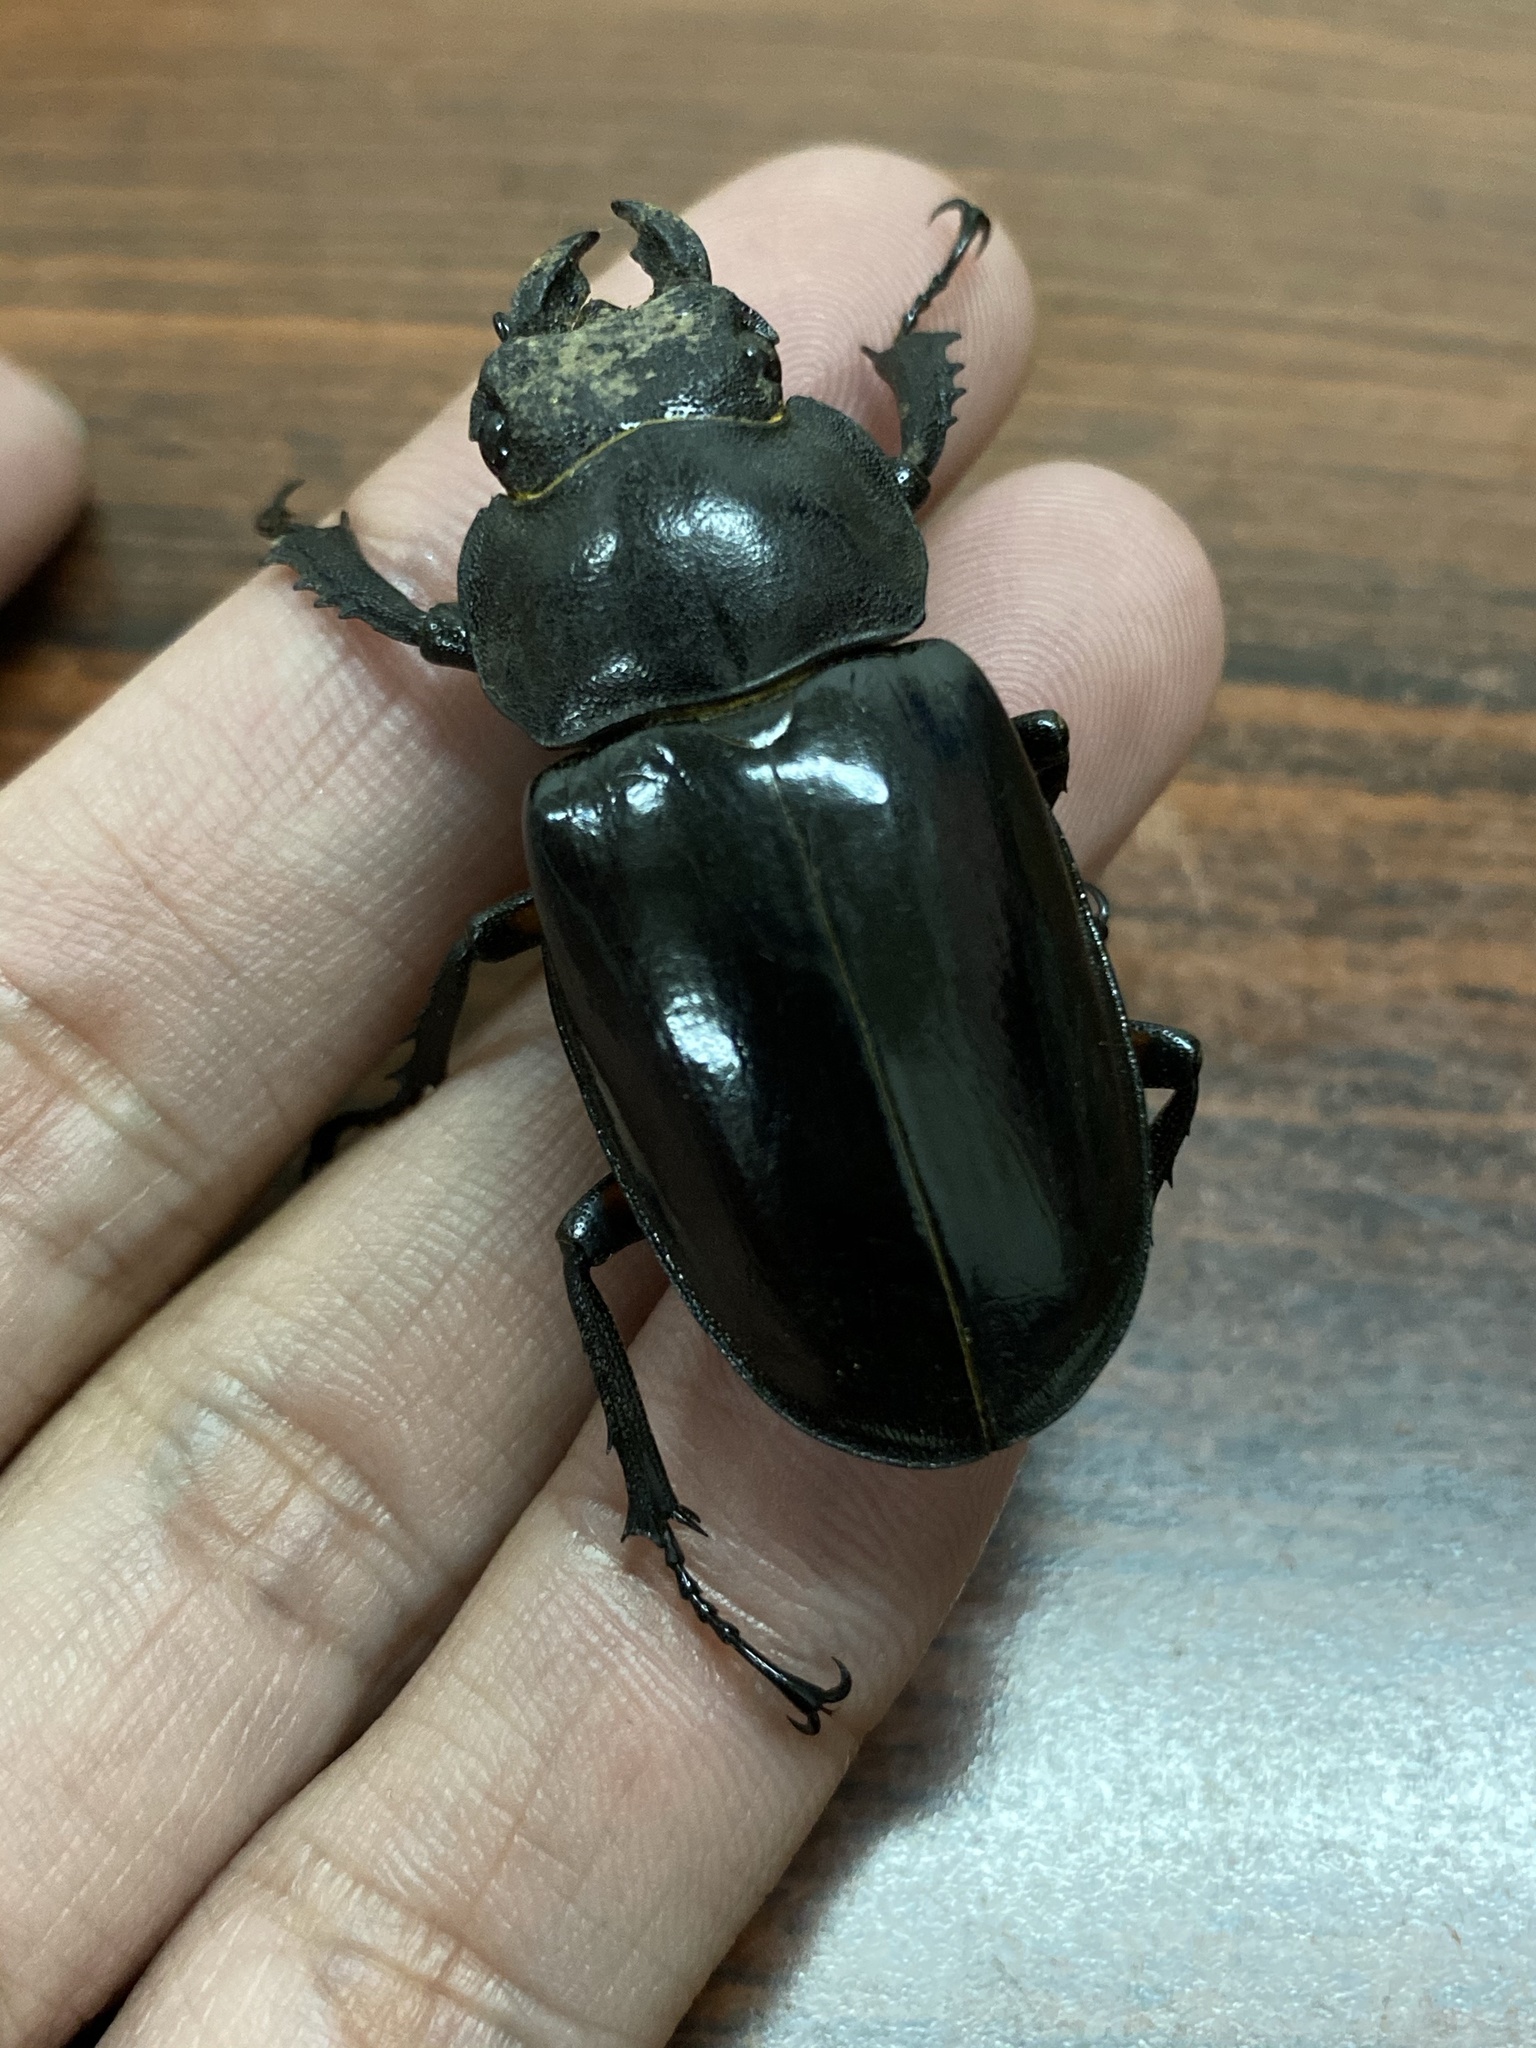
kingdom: Animalia
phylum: Arthropoda
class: Insecta
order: Coleoptera
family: Lucanidae
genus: Lucanus
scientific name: Lucanus maculifemoratus
